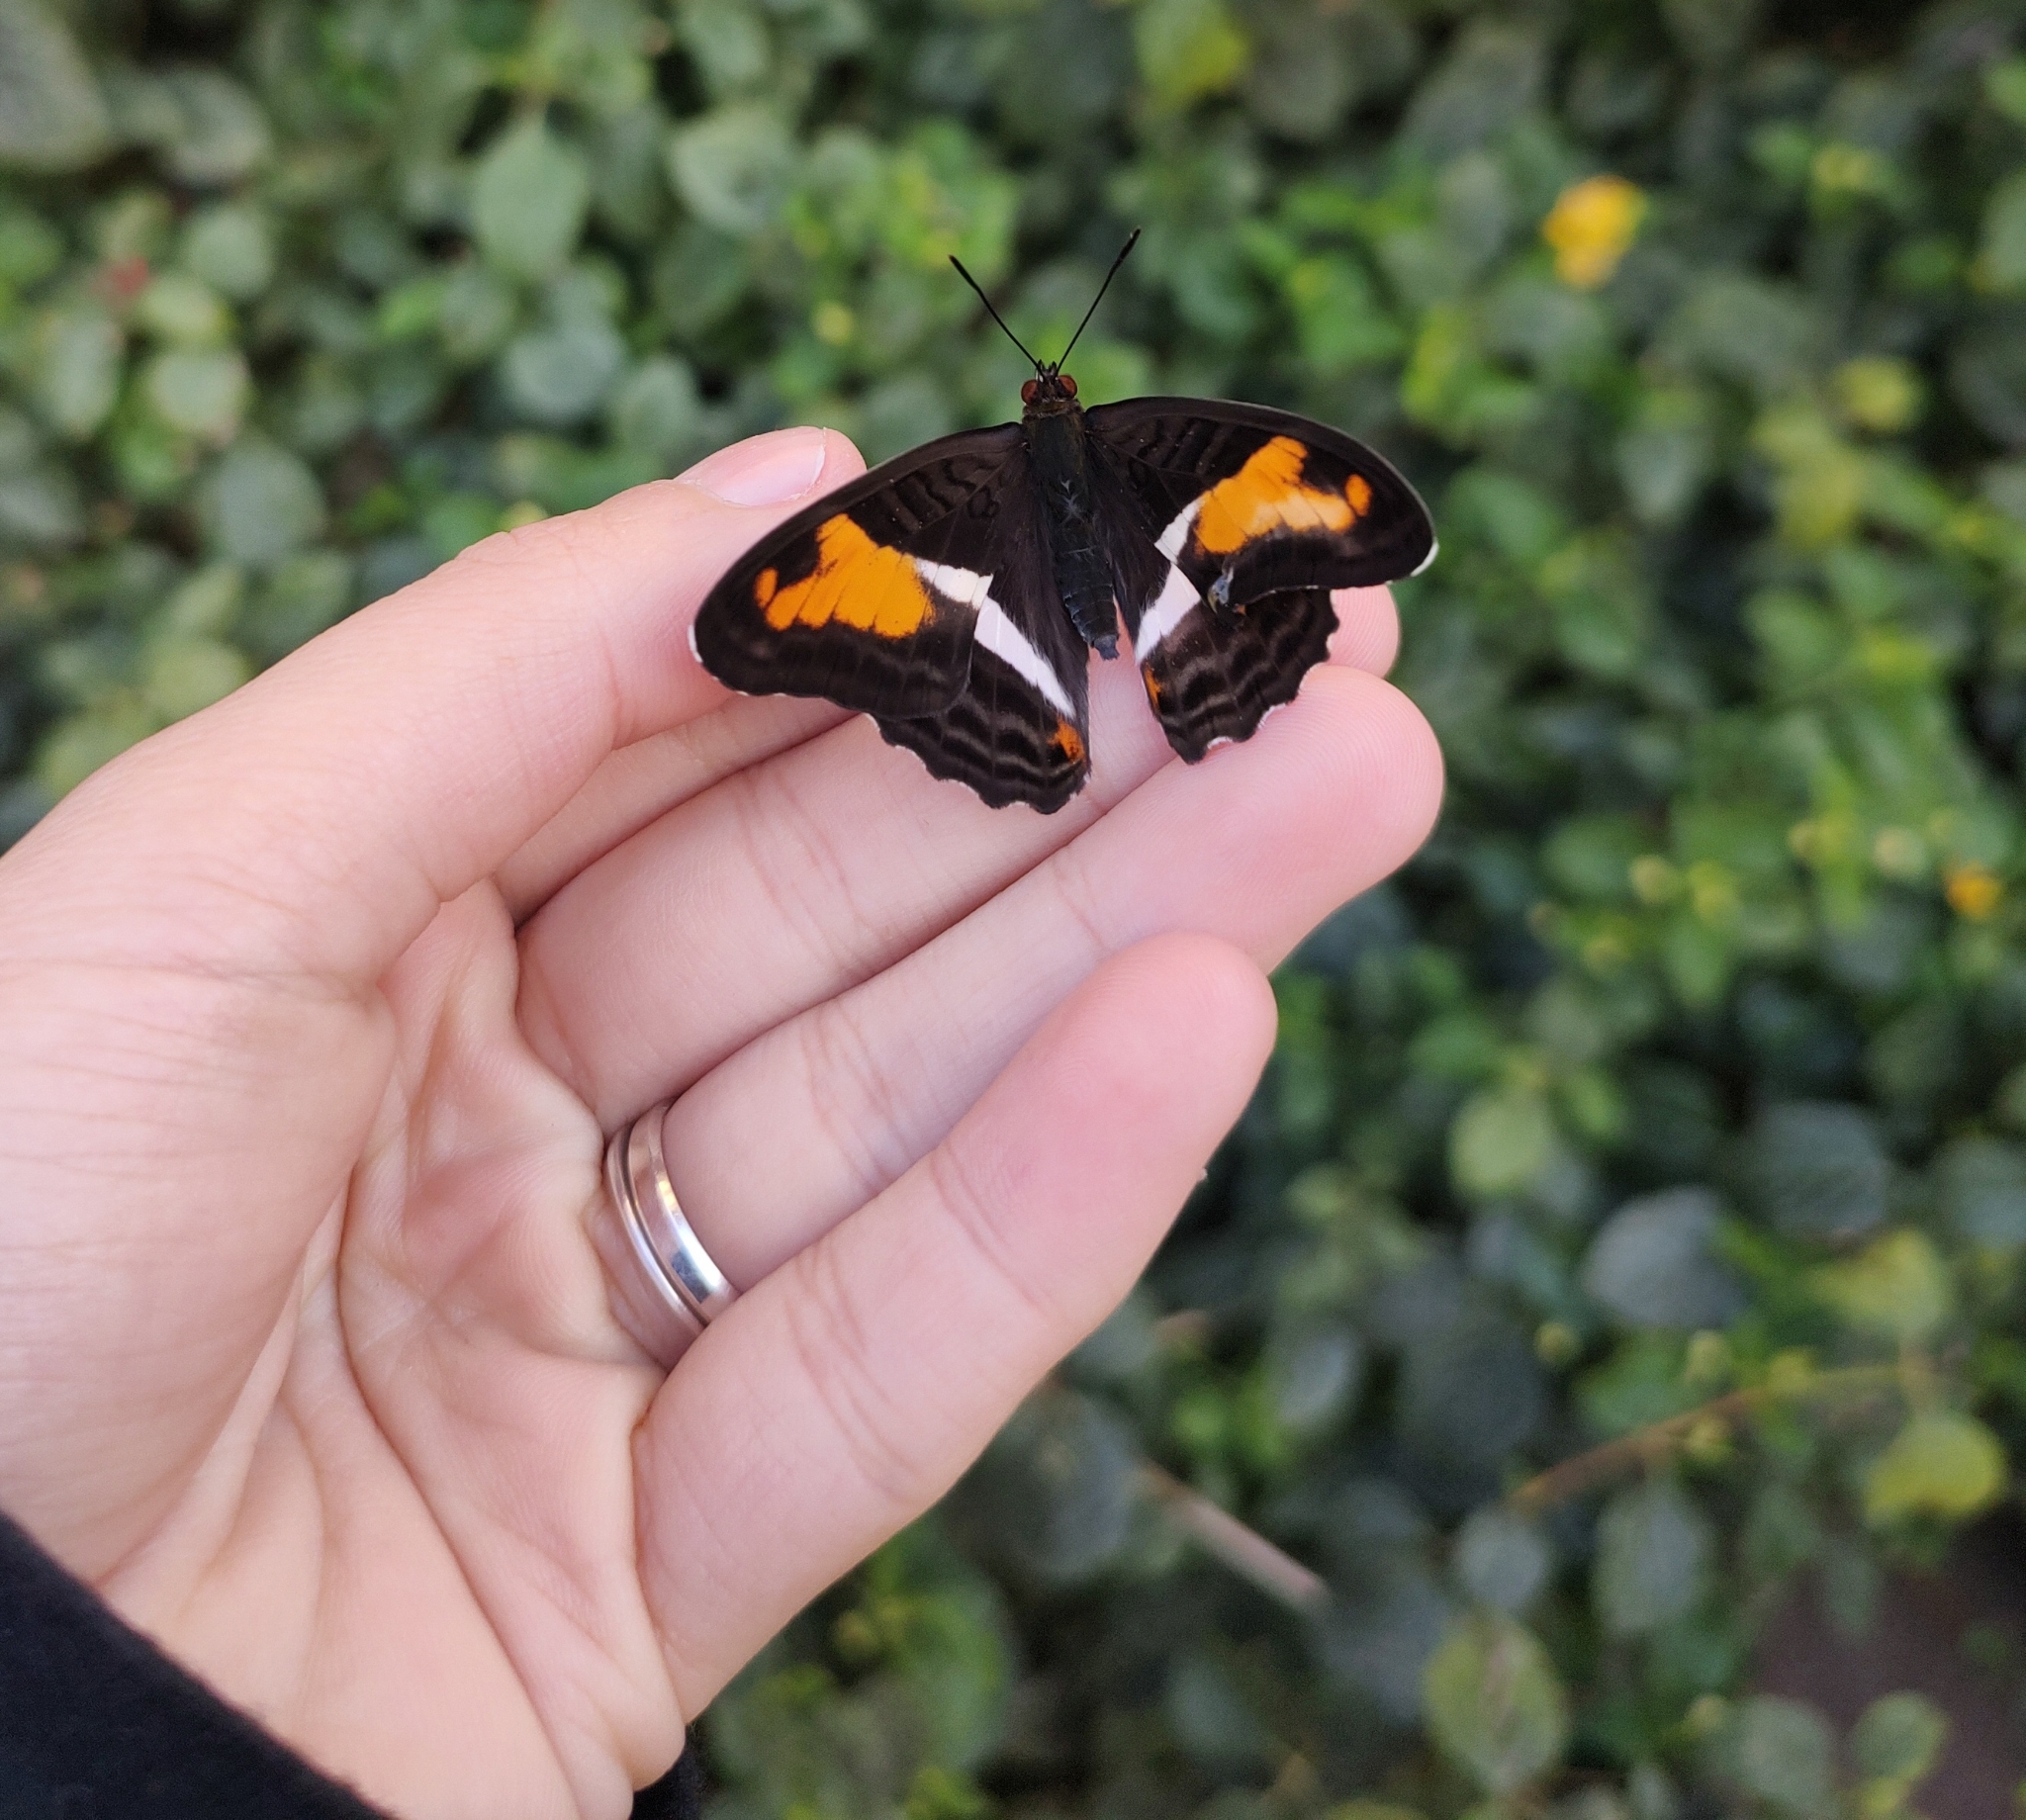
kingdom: Animalia
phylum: Arthropoda
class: Insecta
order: Lepidoptera
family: Nymphalidae
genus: Limenitis
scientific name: Limenitis cocala
